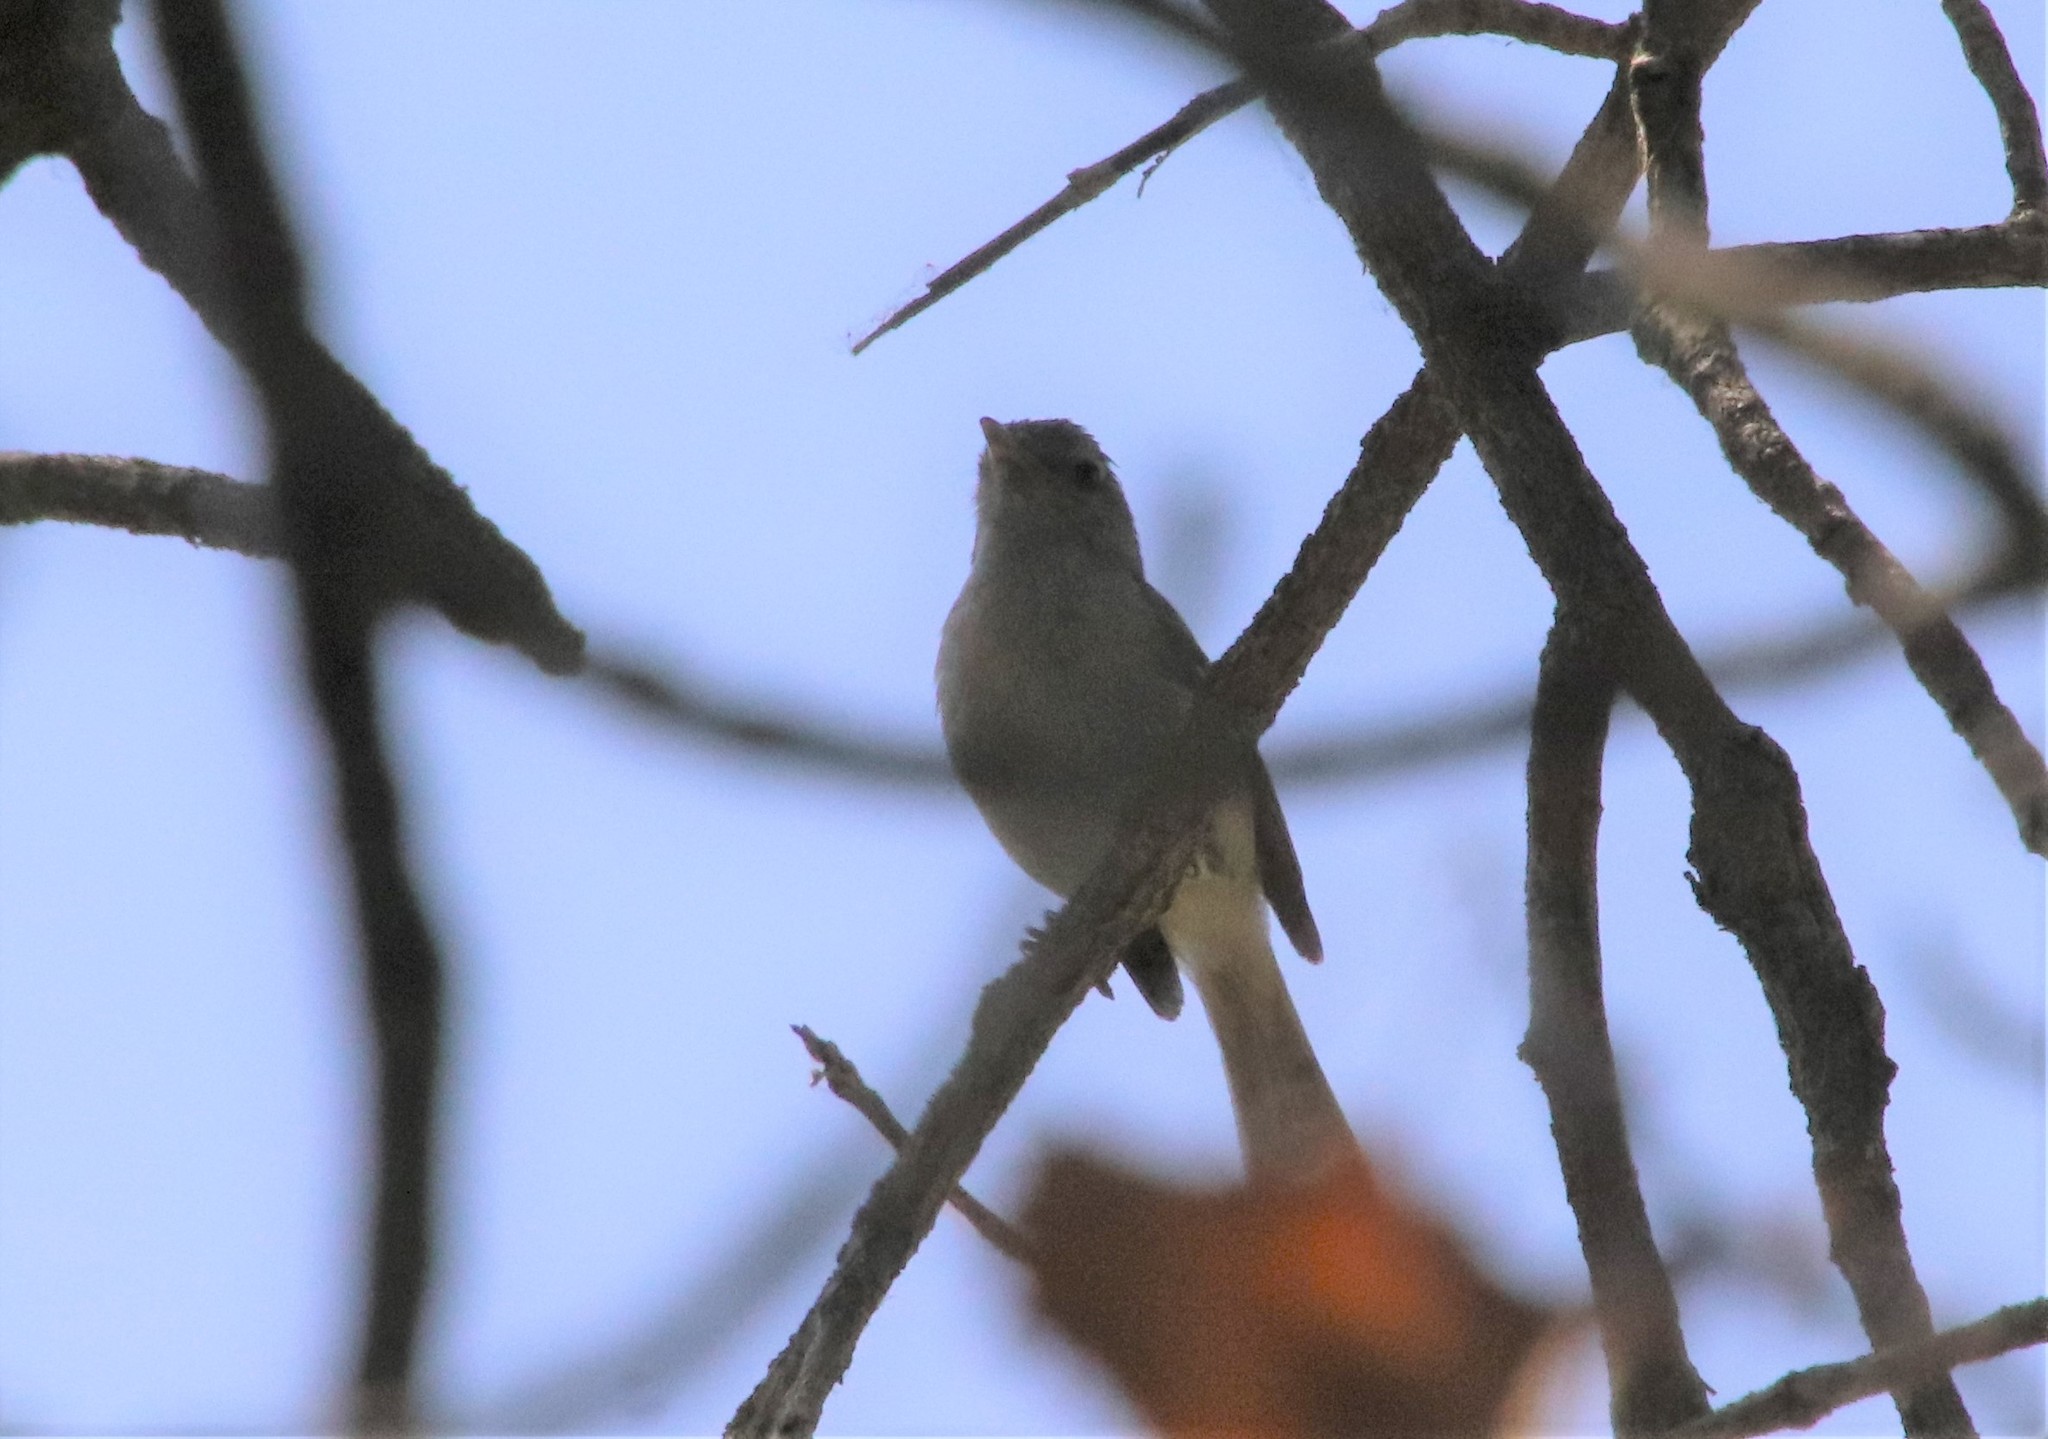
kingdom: Animalia
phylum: Chordata
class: Aves
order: Passeriformes
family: Vireonidae
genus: Vireo
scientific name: Vireo bellii
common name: Bell's vireo
